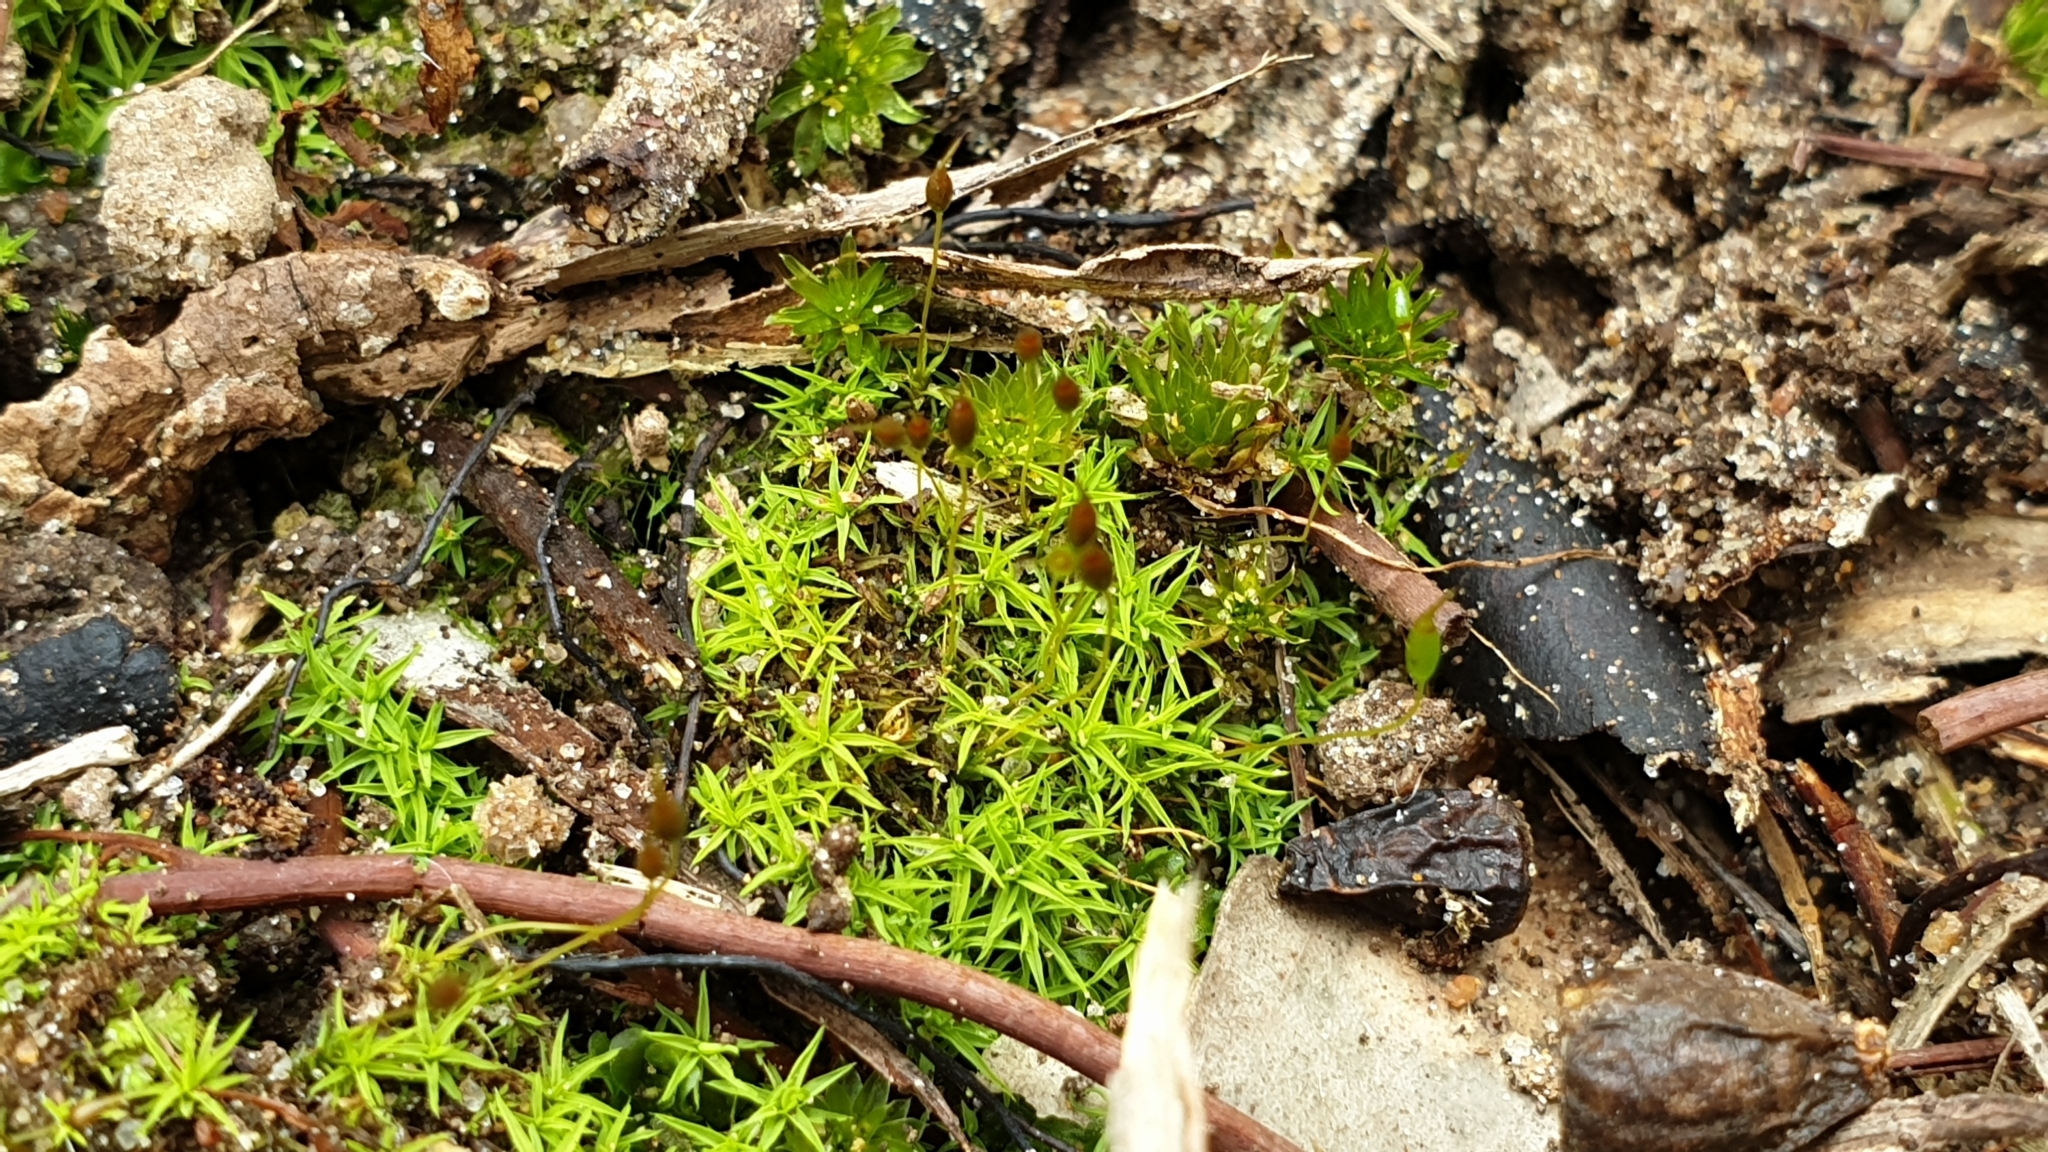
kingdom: Plantae
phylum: Bryophyta
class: Bryopsida
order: Pottiales
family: Pottiaceae
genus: Weissia
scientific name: Weissia controversa
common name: Green-tufted stubble moss
